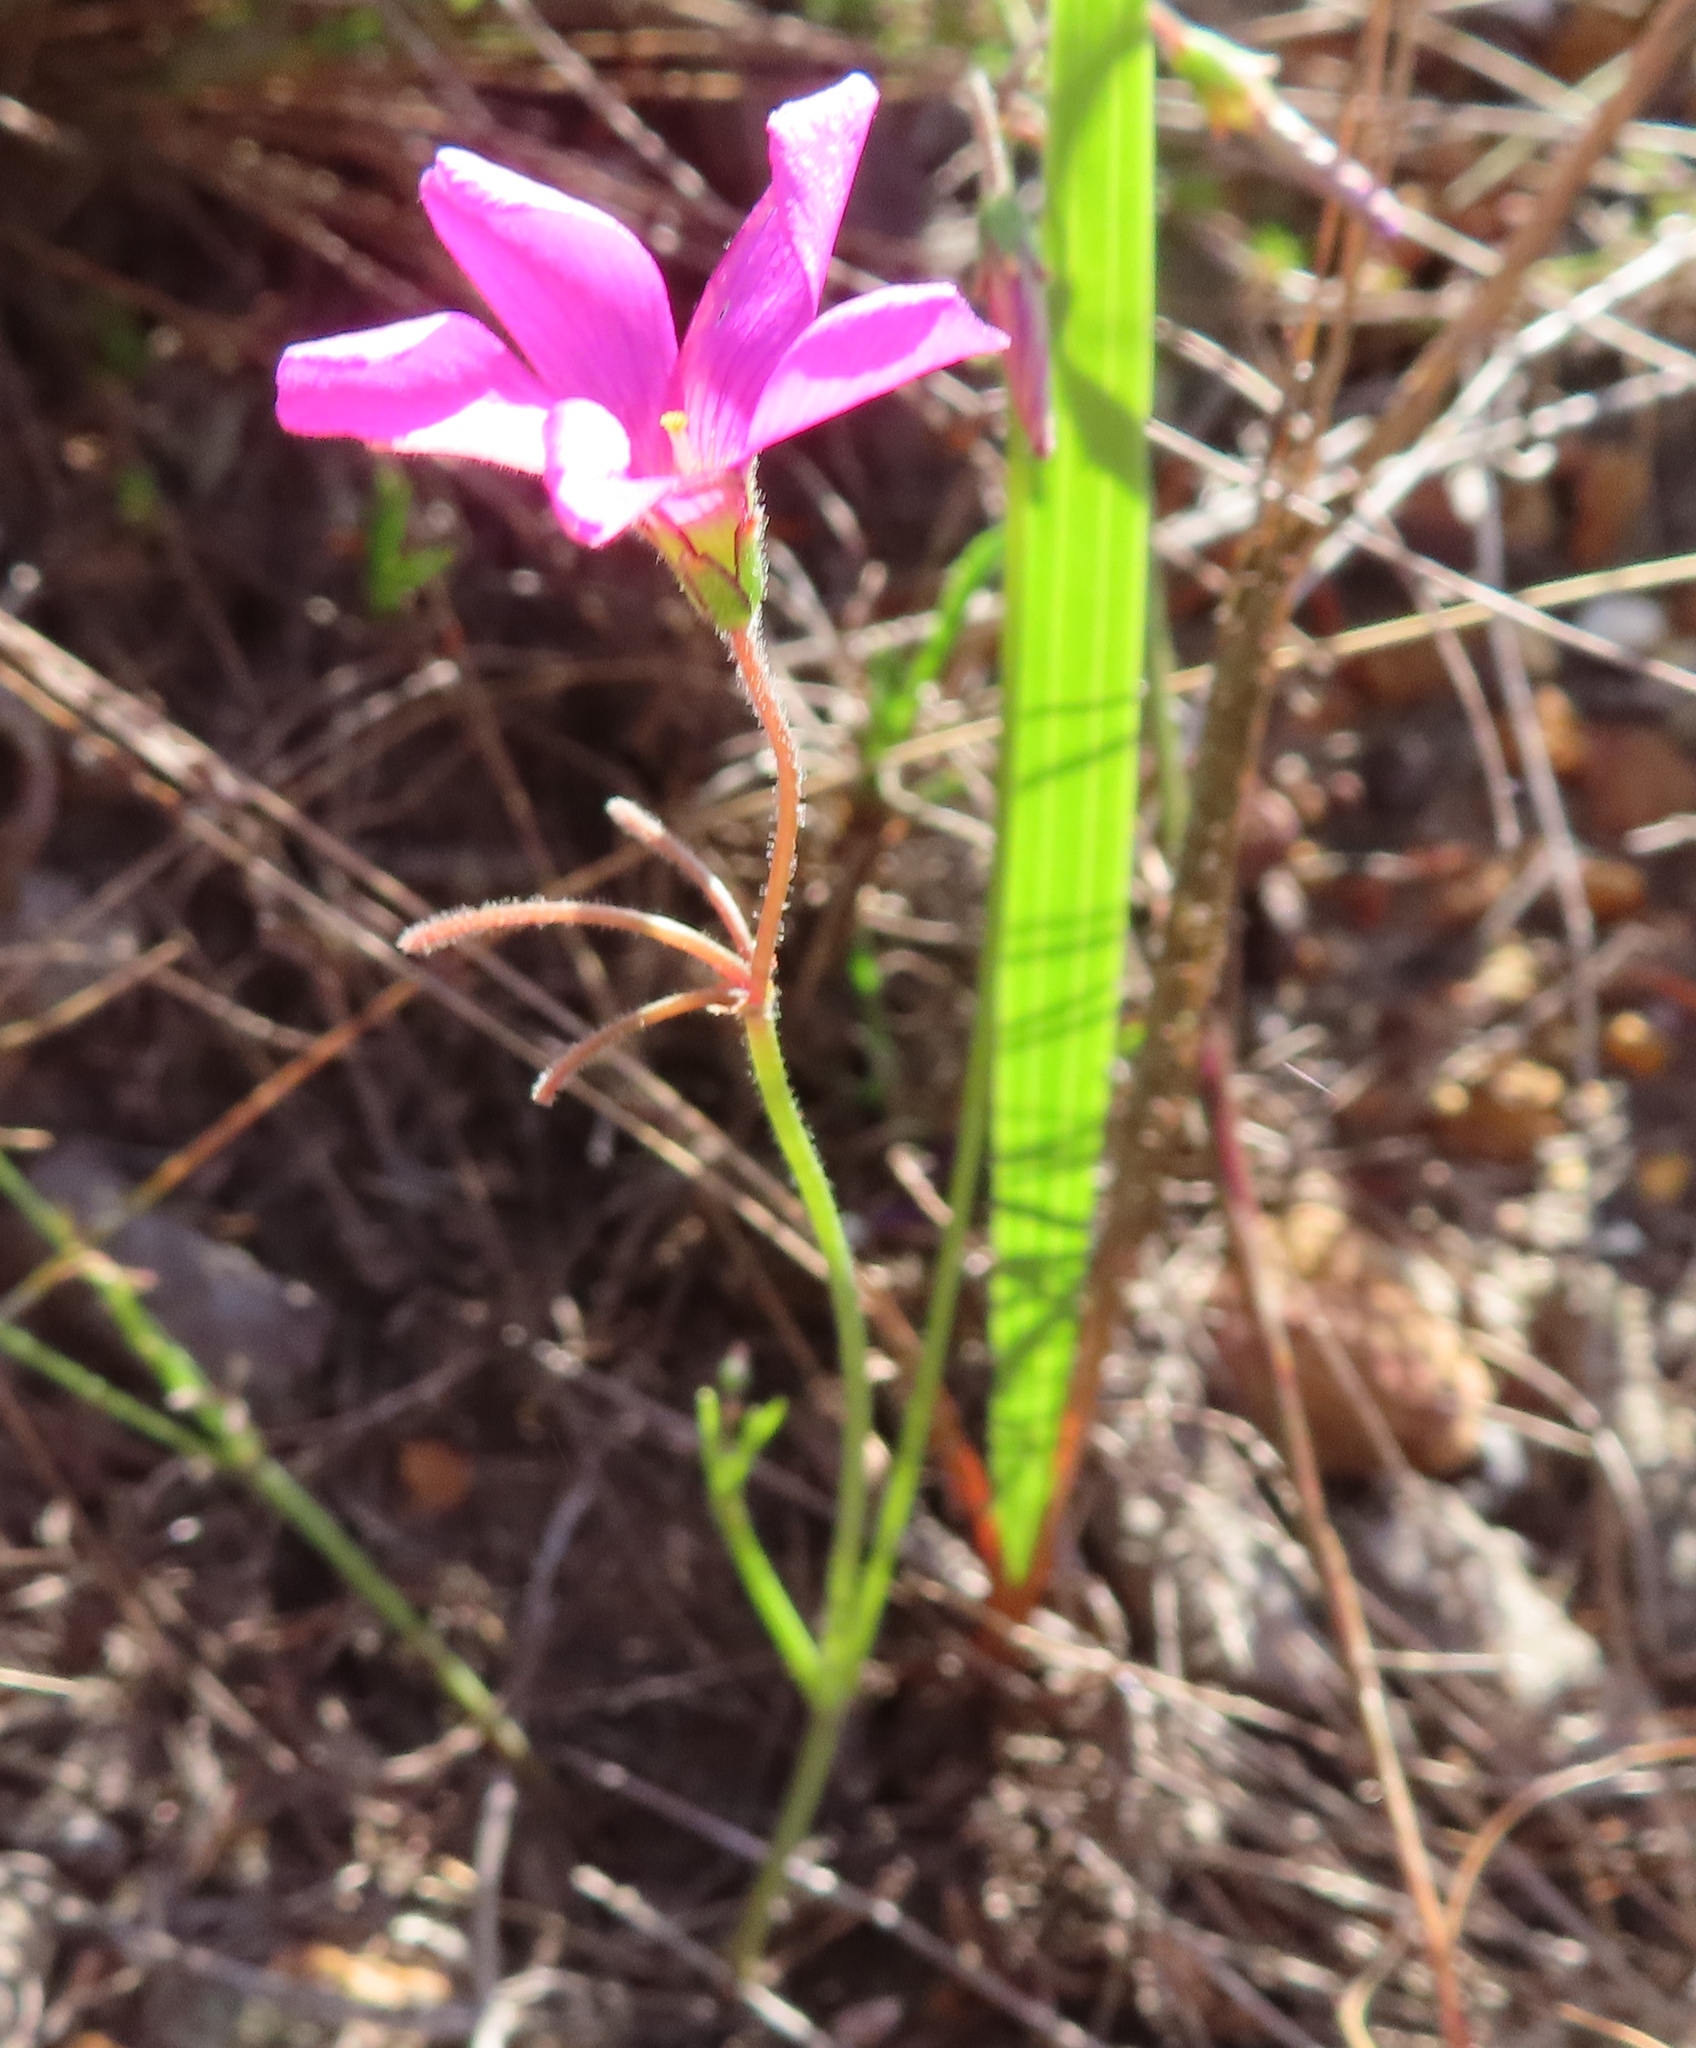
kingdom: Plantae
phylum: Tracheophyta
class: Magnoliopsida
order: Oxalidales
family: Oxalidaceae
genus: Oxalis
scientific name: Oxalis livida
